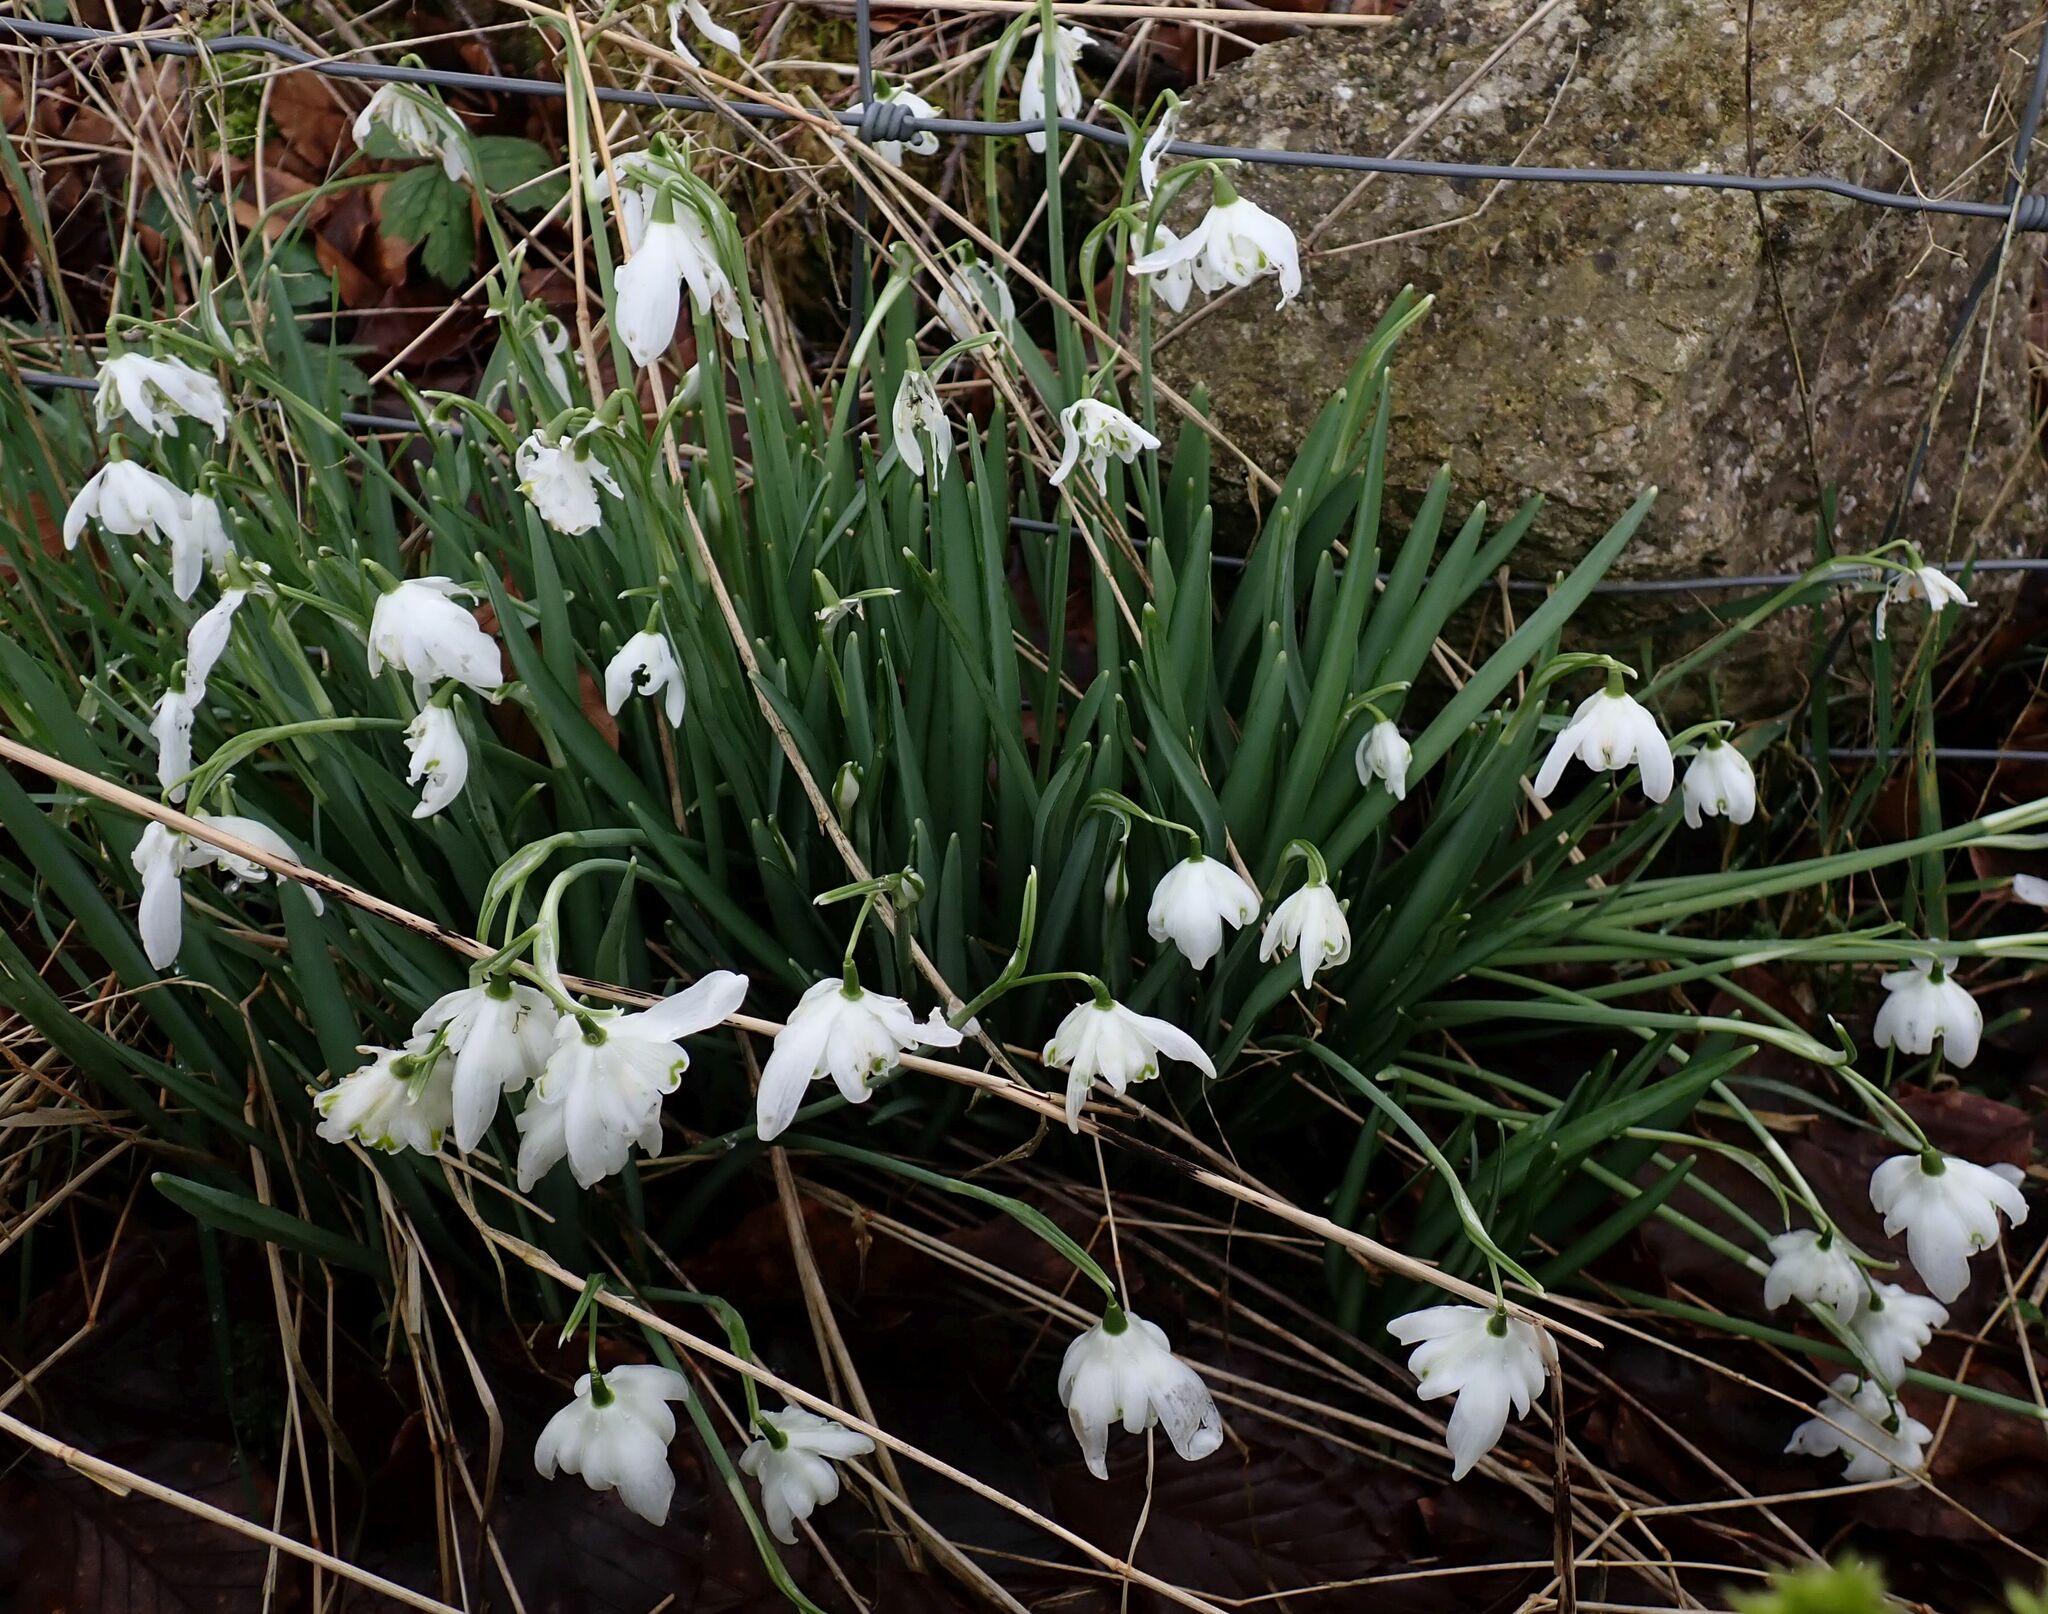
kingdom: Plantae
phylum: Tracheophyta
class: Liliopsida
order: Asparagales
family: Amaryllidaceae
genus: Galanthus
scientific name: Galanthus nivalis
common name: Snowdrop
